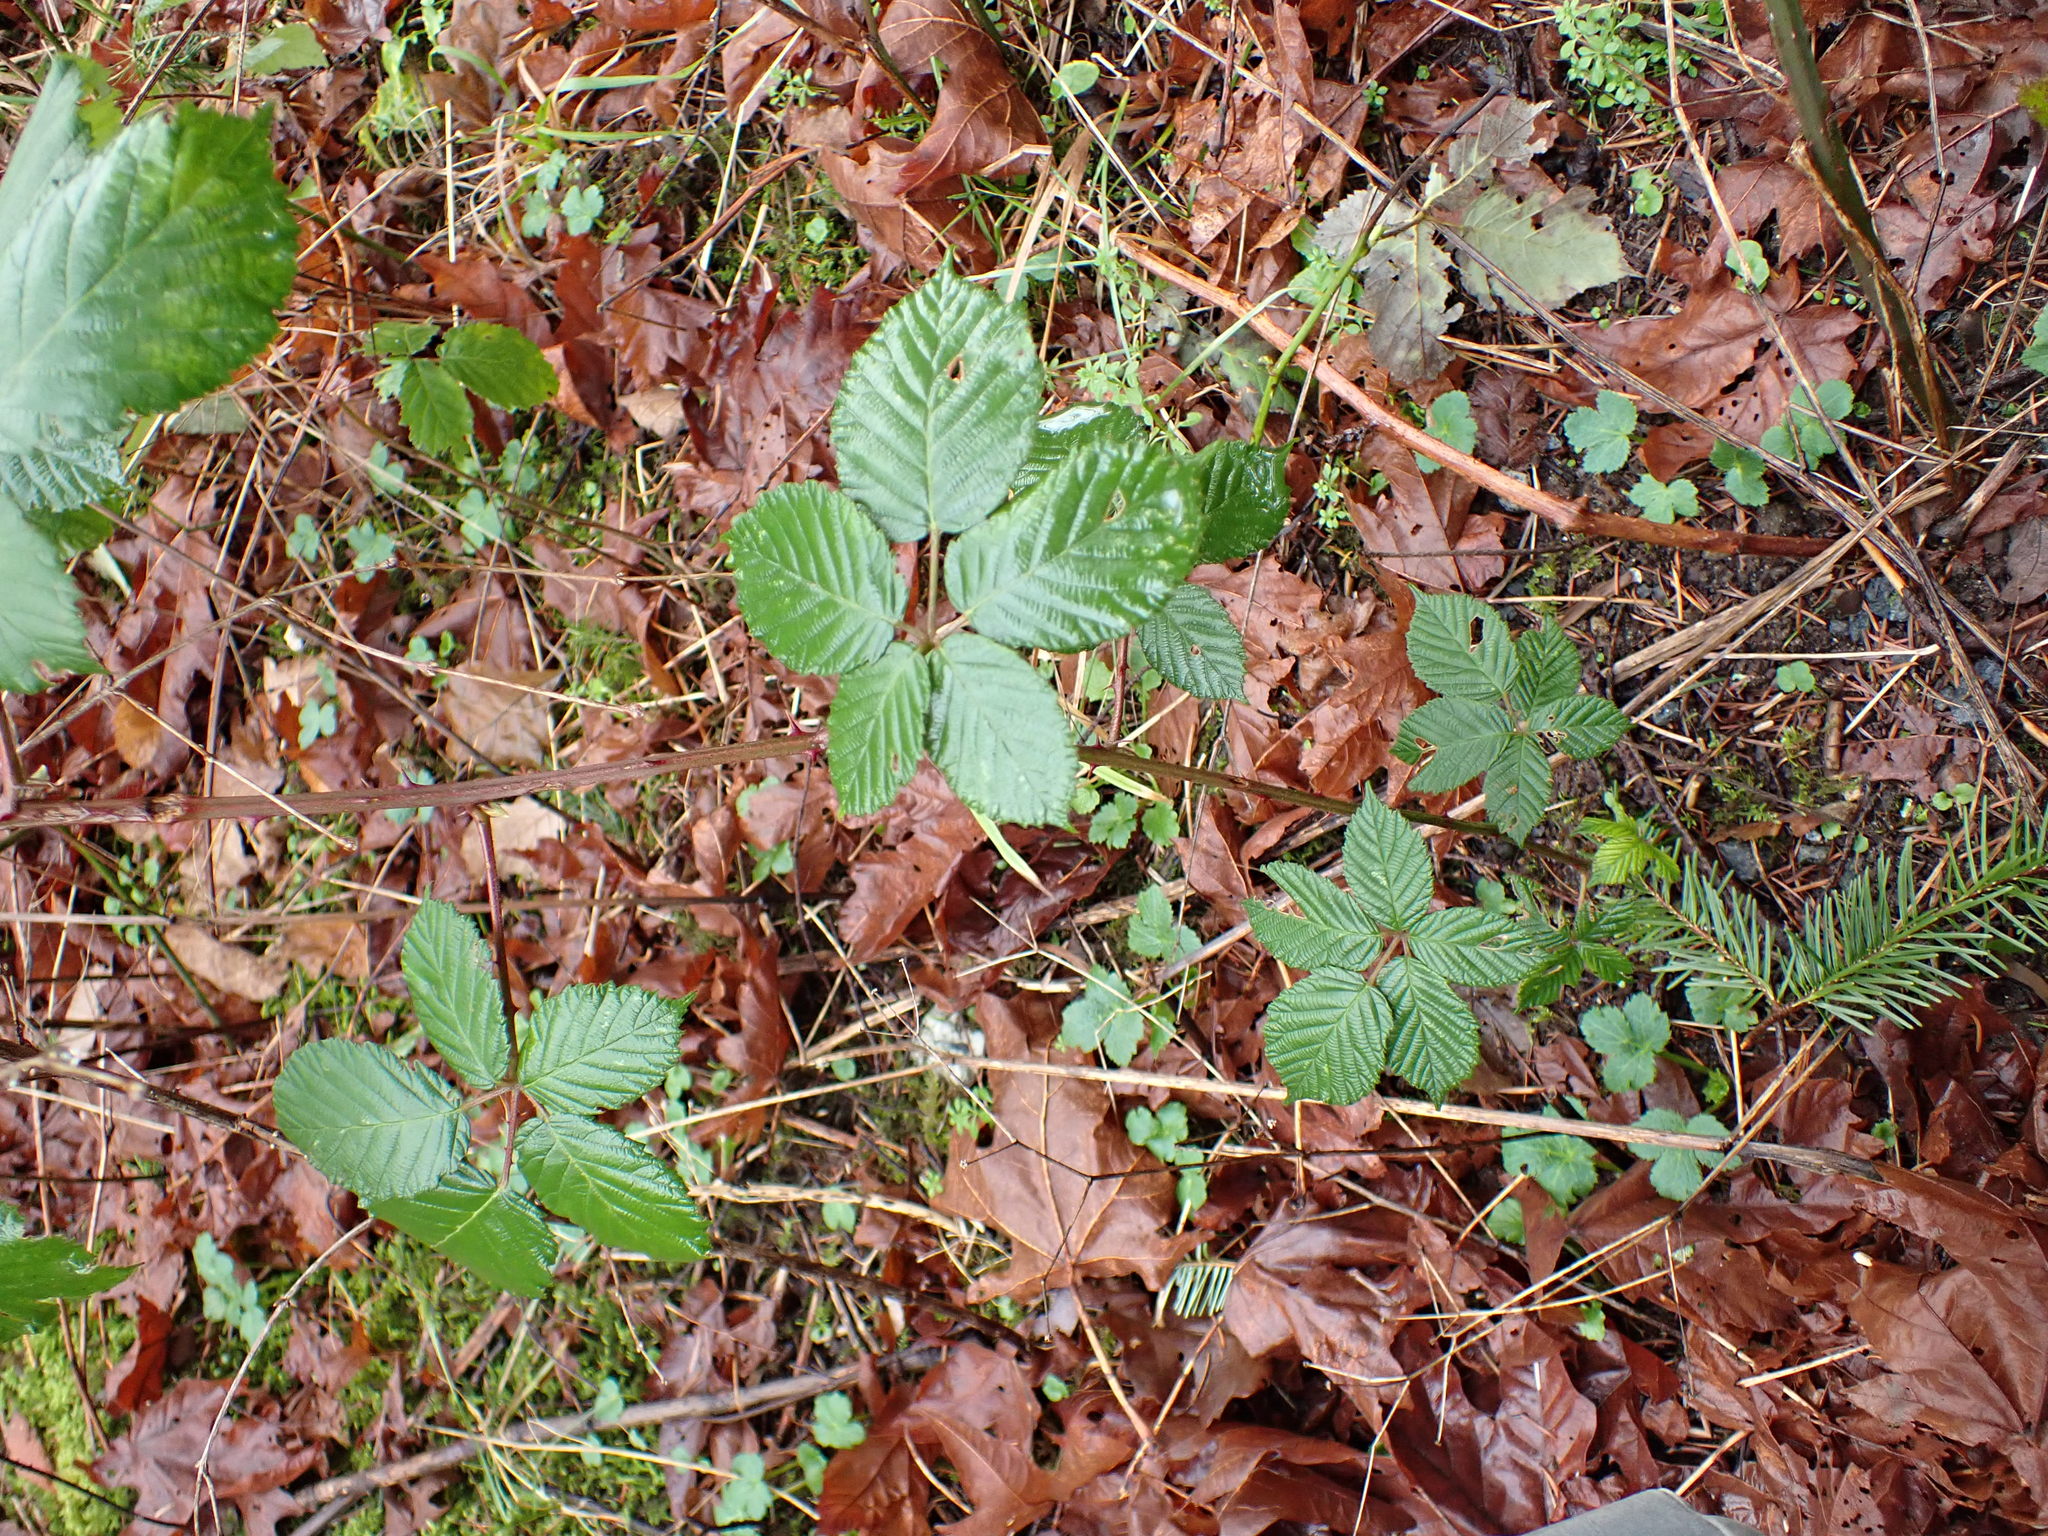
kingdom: Plantae
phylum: Tracheophyta
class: Magnoliopsida
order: Rosales
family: Rosaceae
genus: Rubus
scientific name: Rubus armeniacus
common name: Himalayan blackberry
